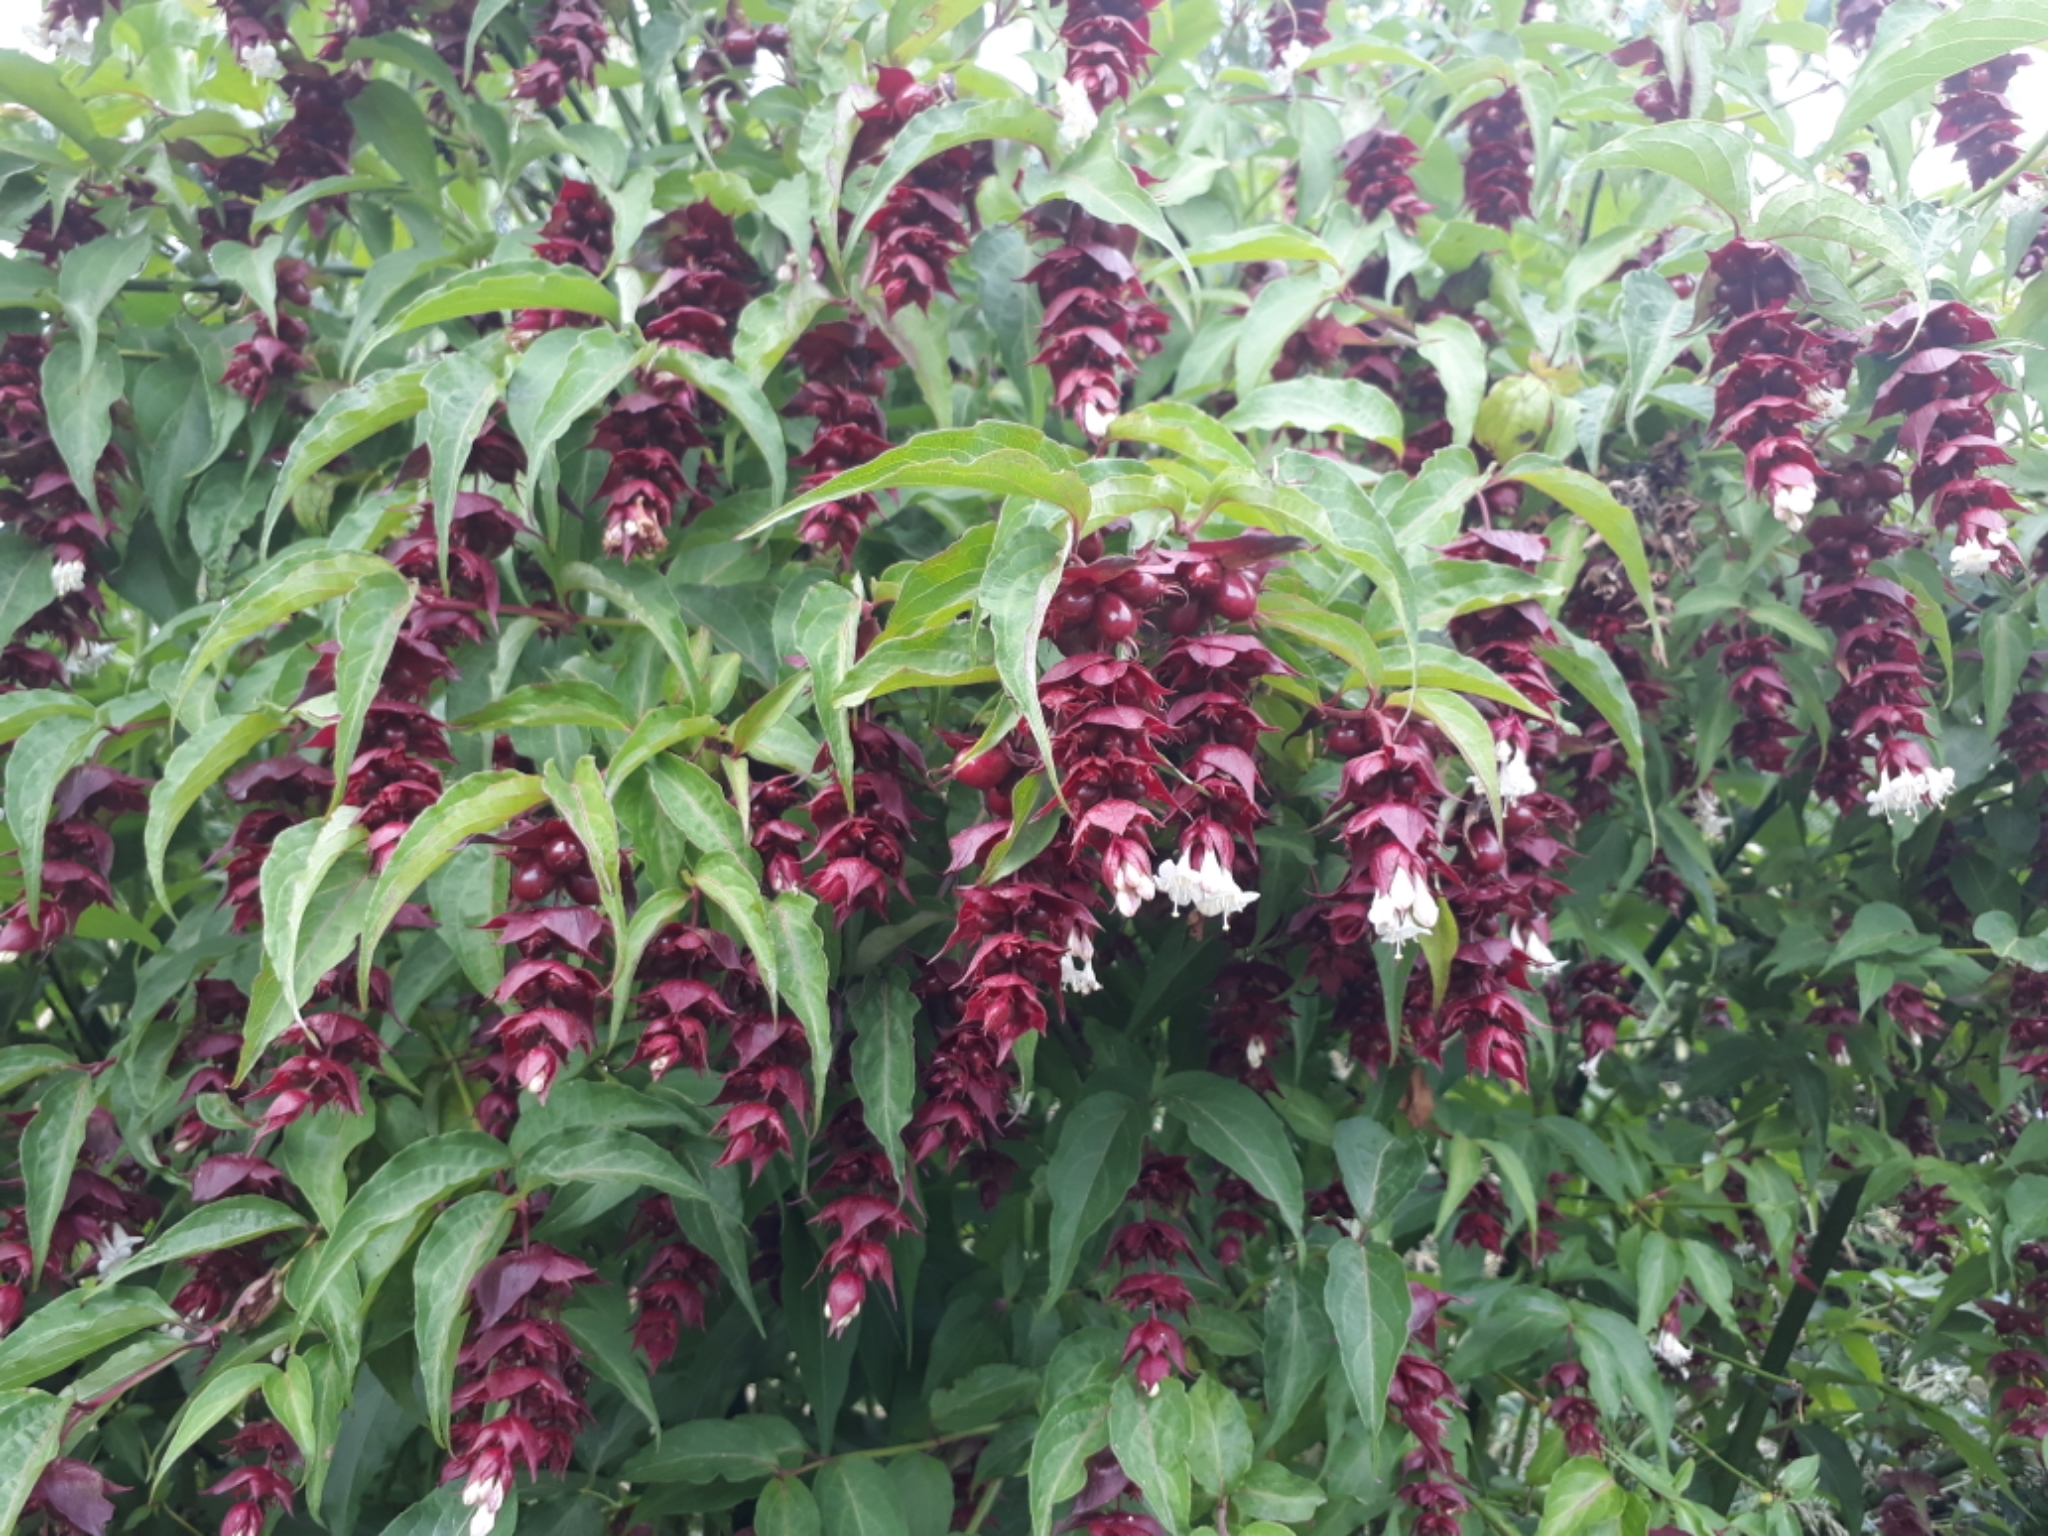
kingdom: Plantae
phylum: Tracheophyta
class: Magnoliopsida
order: Dipsacales
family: Caprifoliaceae
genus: Leycesteria
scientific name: Leycesteria formosa
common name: Himalayan honeysuckle
